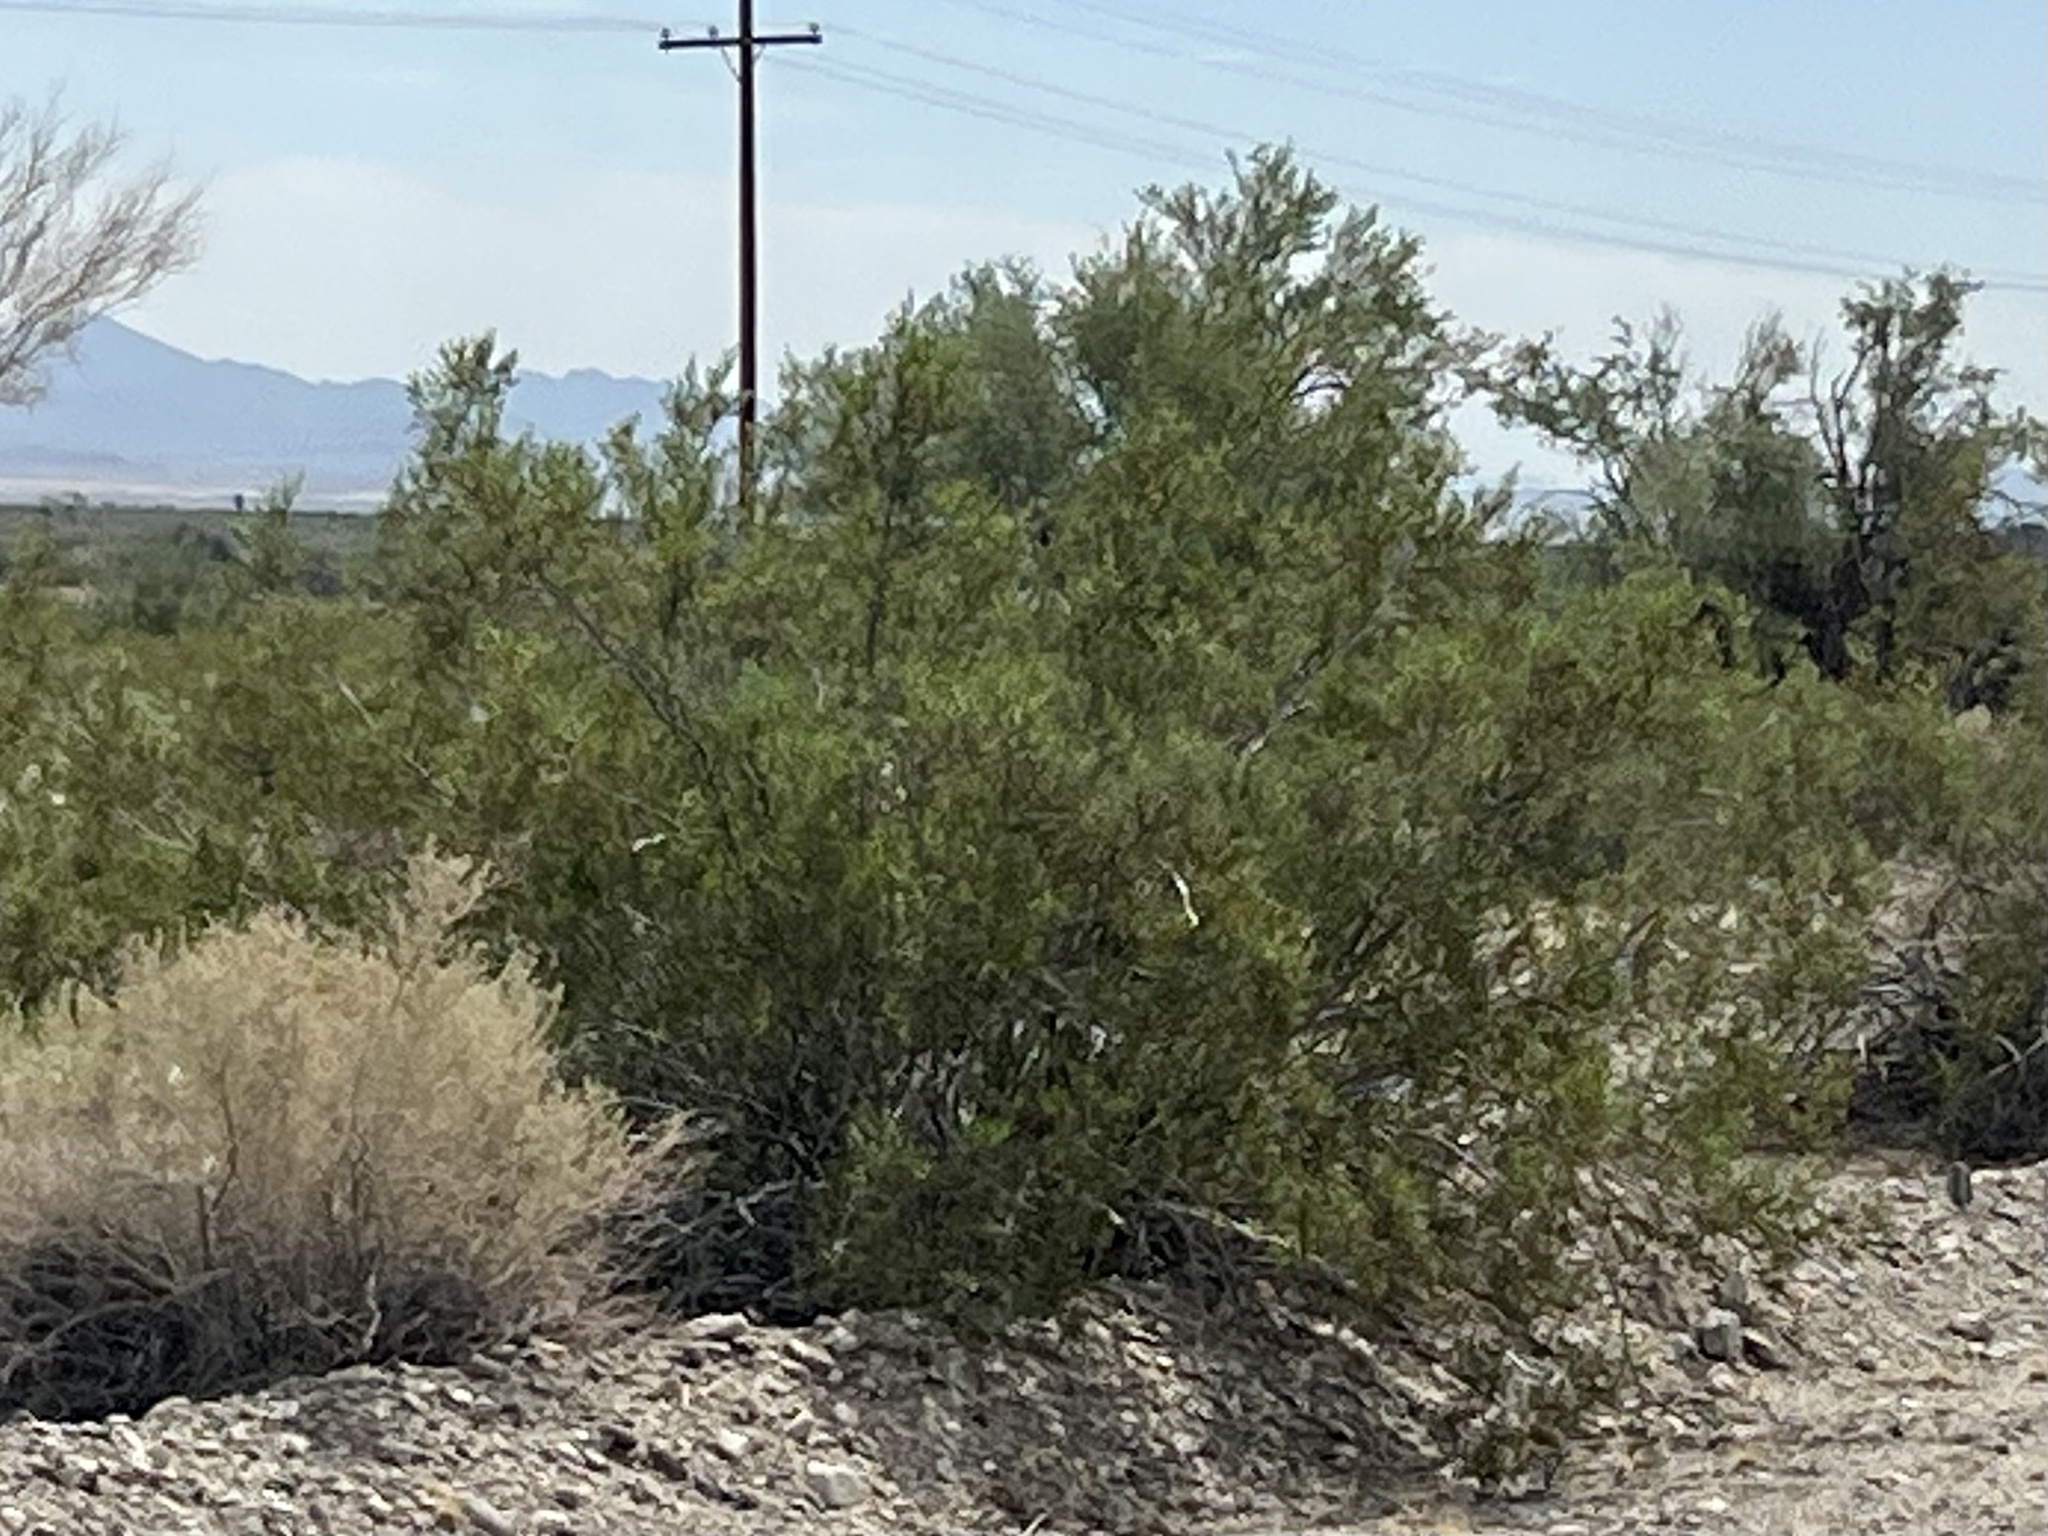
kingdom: Plantae
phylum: Tracheophyta
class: Magnoliopsida
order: Zygophyllales
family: Zygophyllaceae
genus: Larrea
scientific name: Larrea tridentata
